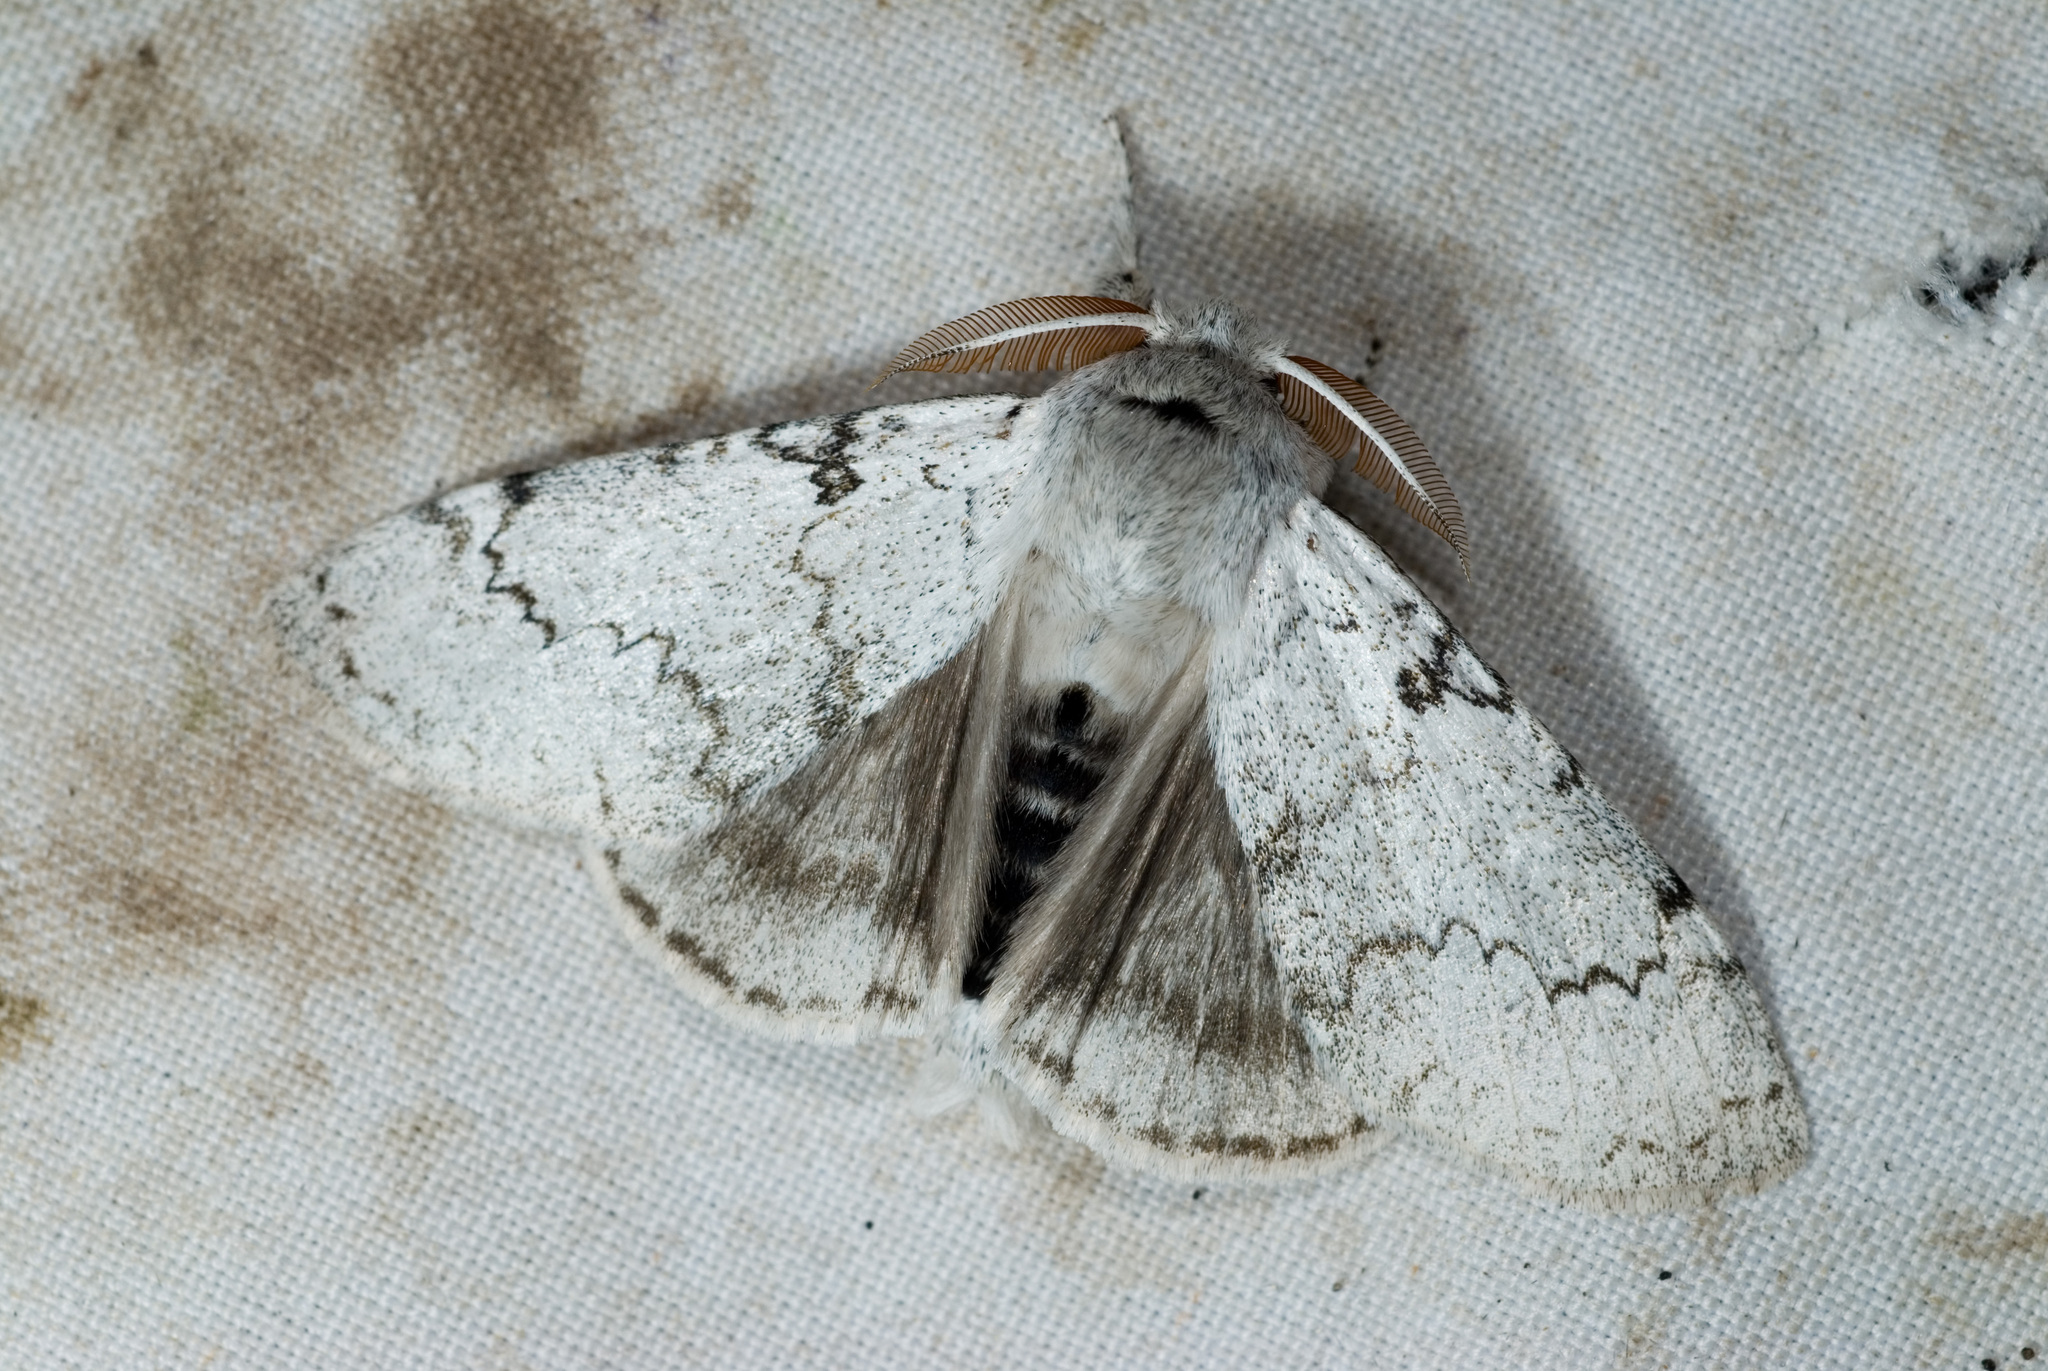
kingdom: Animalia
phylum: Arthropoda
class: Insecta
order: Lepidoptera
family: Erebidae
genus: Calliteara
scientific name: Calliteara contexta
